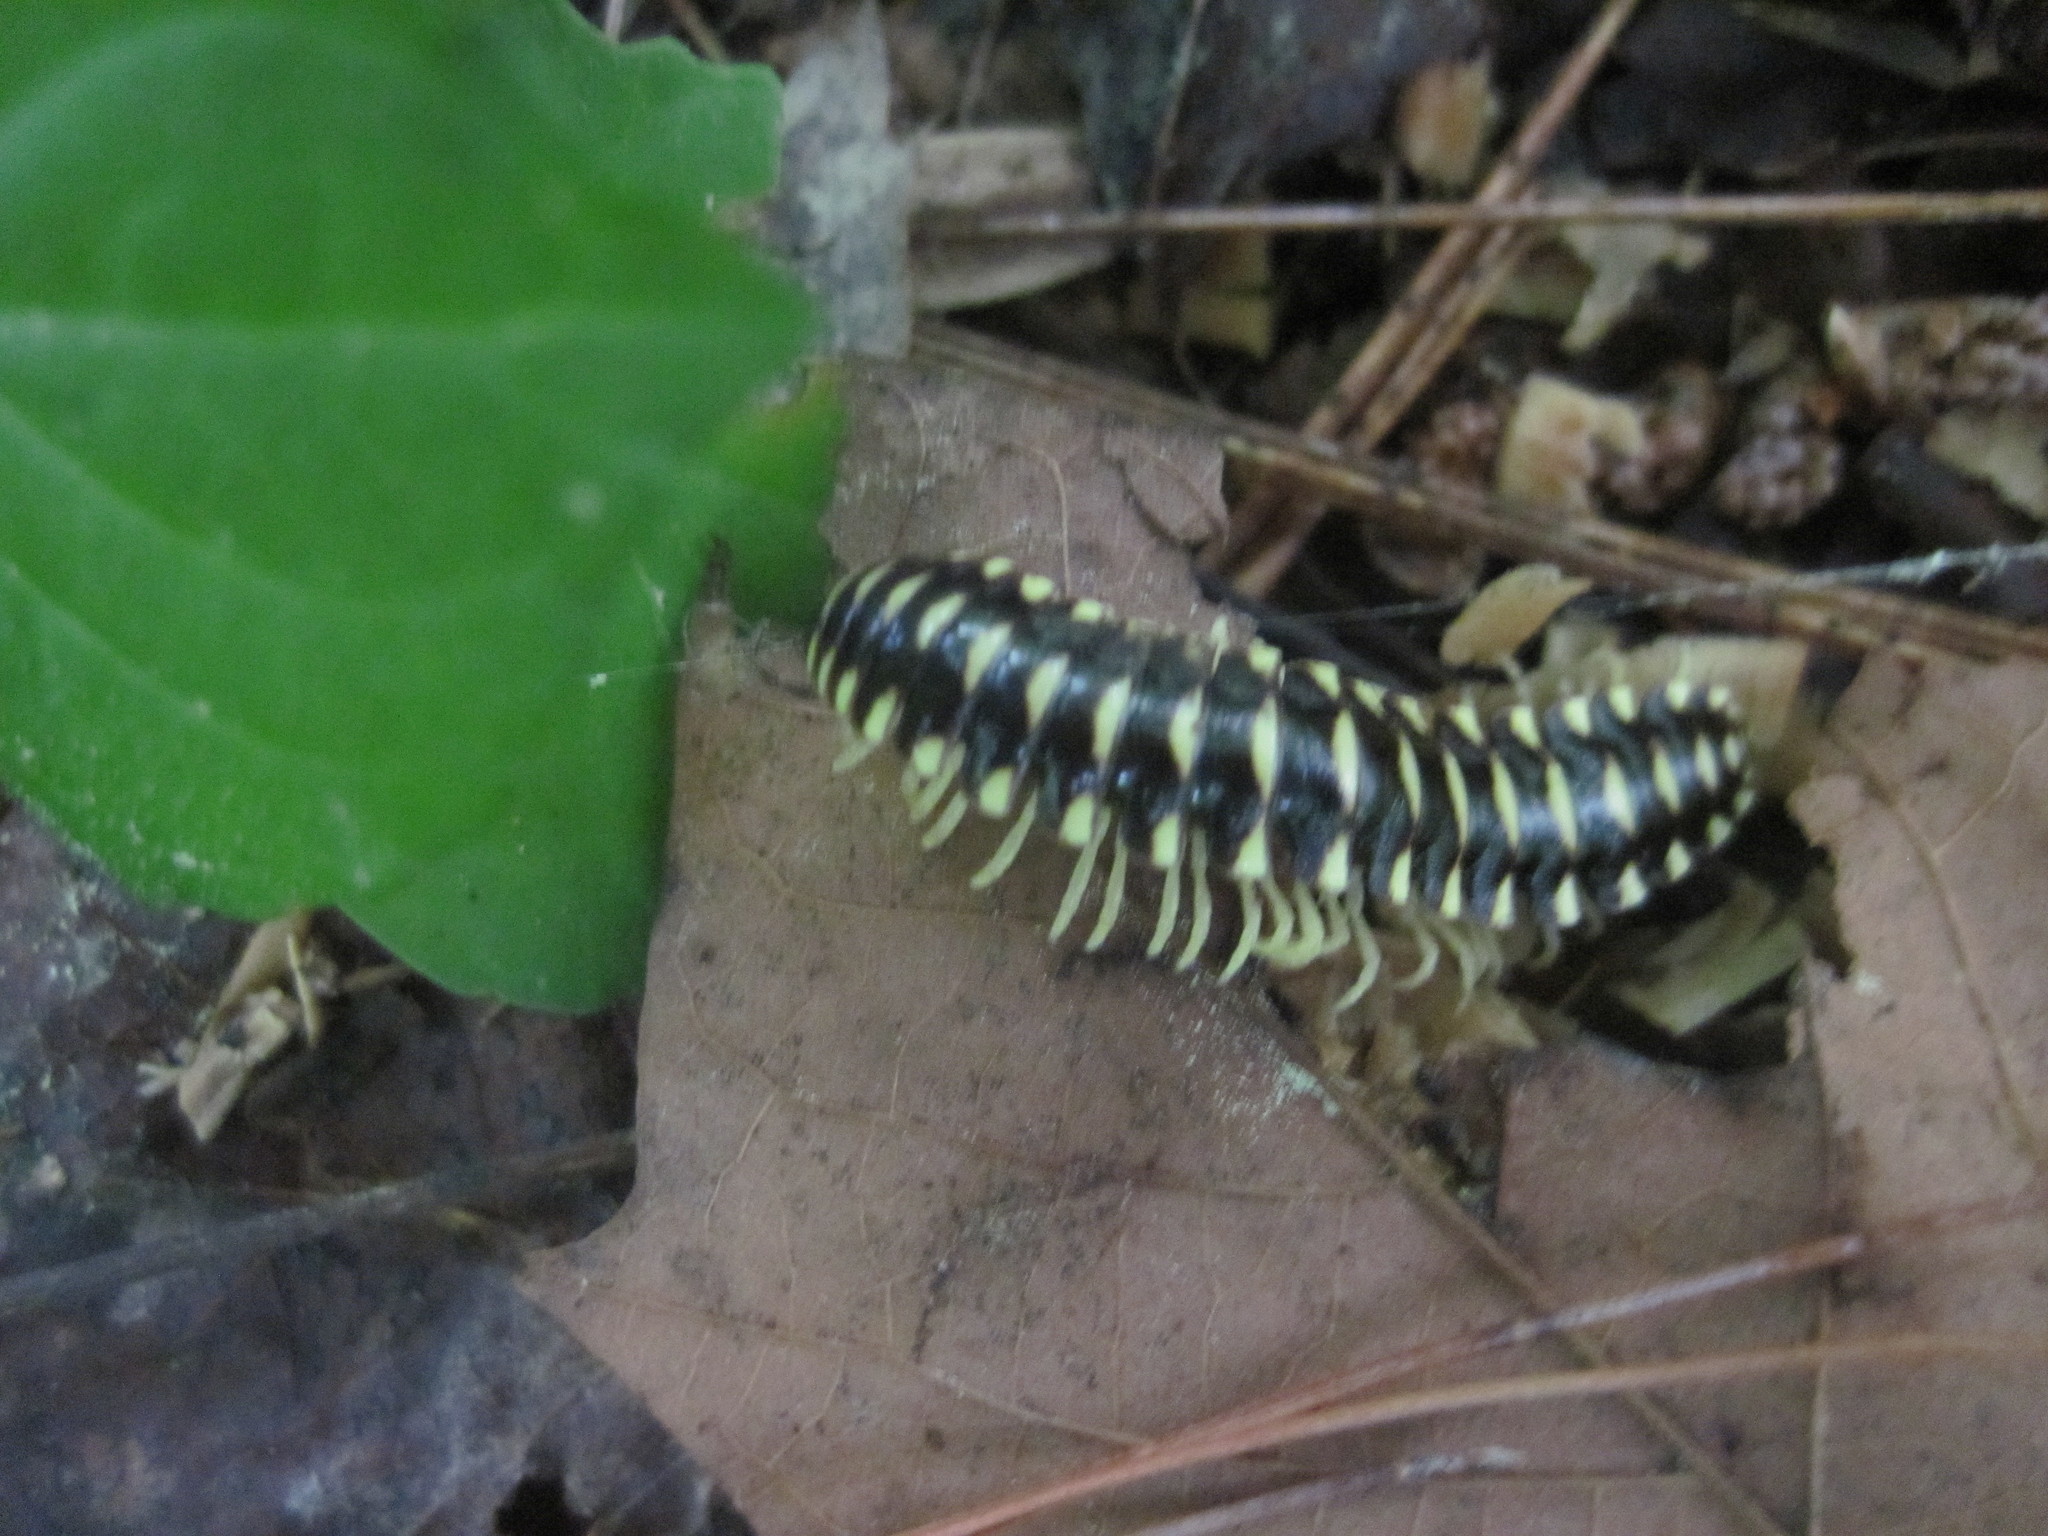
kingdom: Animalia
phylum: Arthropoda
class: Diplopoda
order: Polydesmida
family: Xystodesmidae
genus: Cherokia
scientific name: Cherokia georgiana
